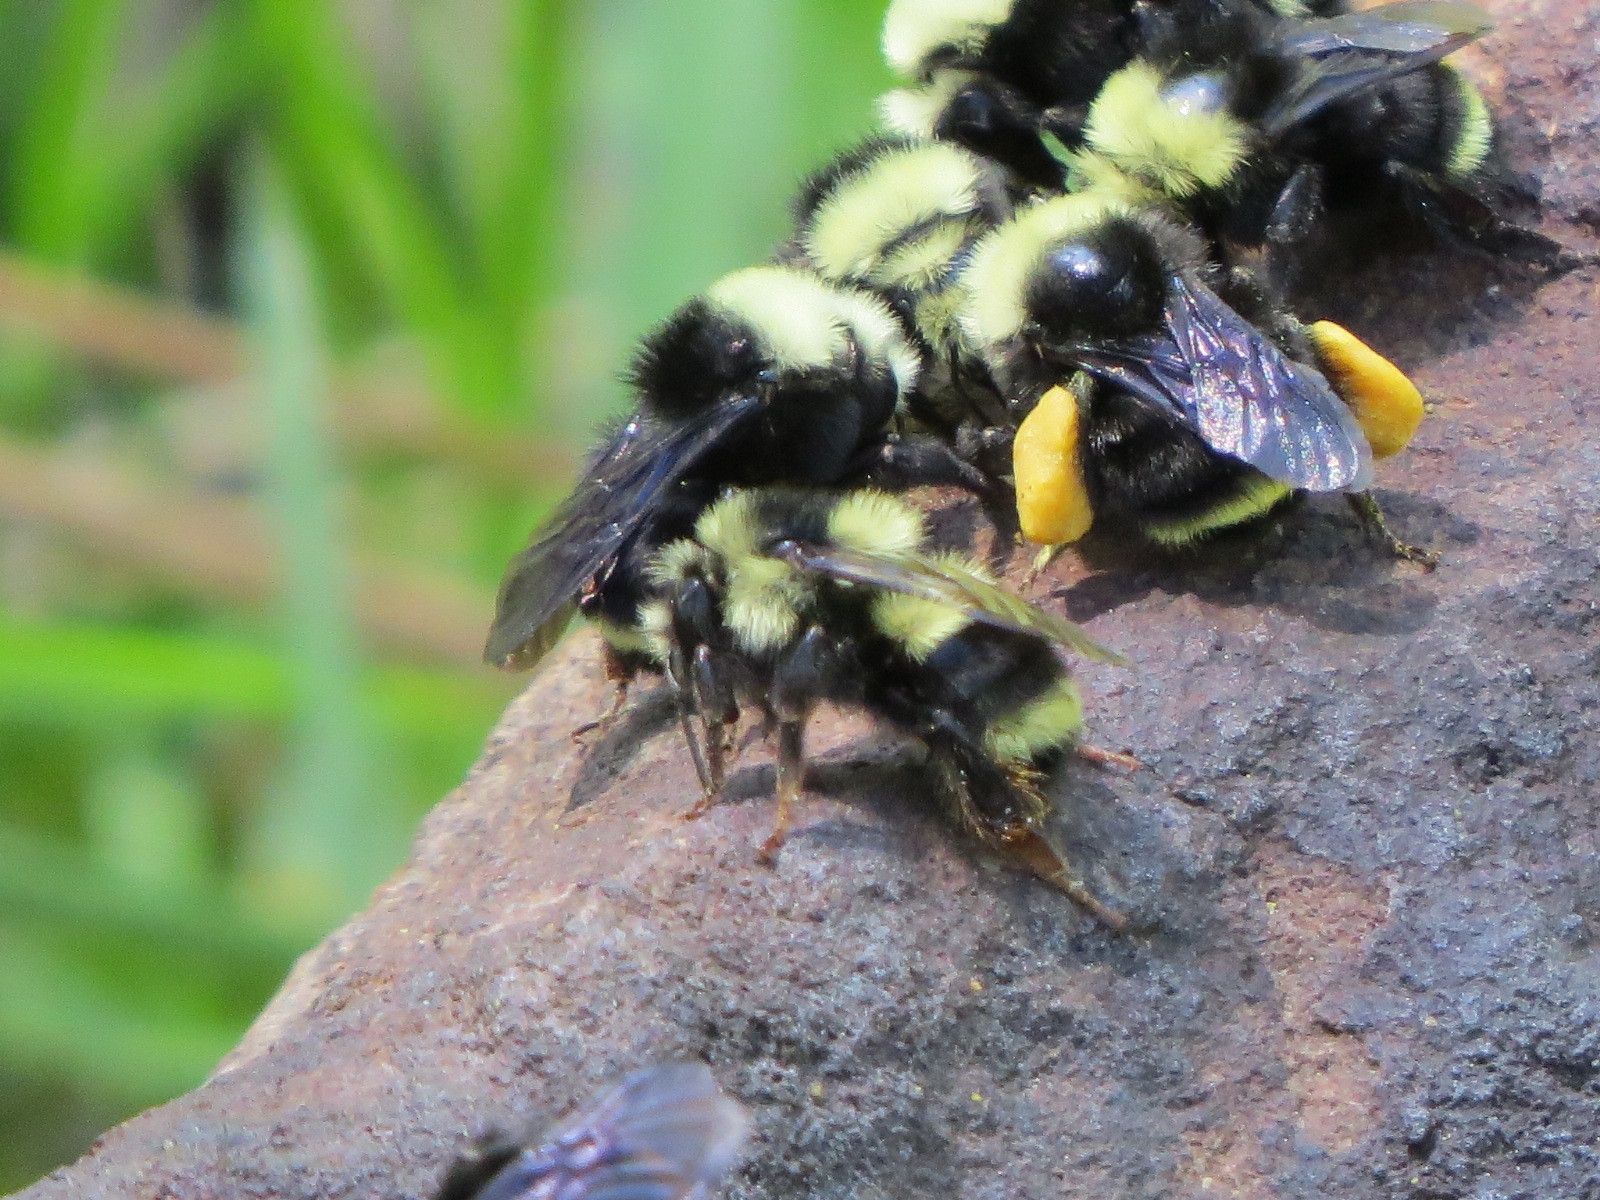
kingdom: Animalia
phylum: Arthropoda
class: Insecta
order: Hymenoptera
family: Apidae
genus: Bombus
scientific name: Bombus melanopygus
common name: Black tail bumble bee
